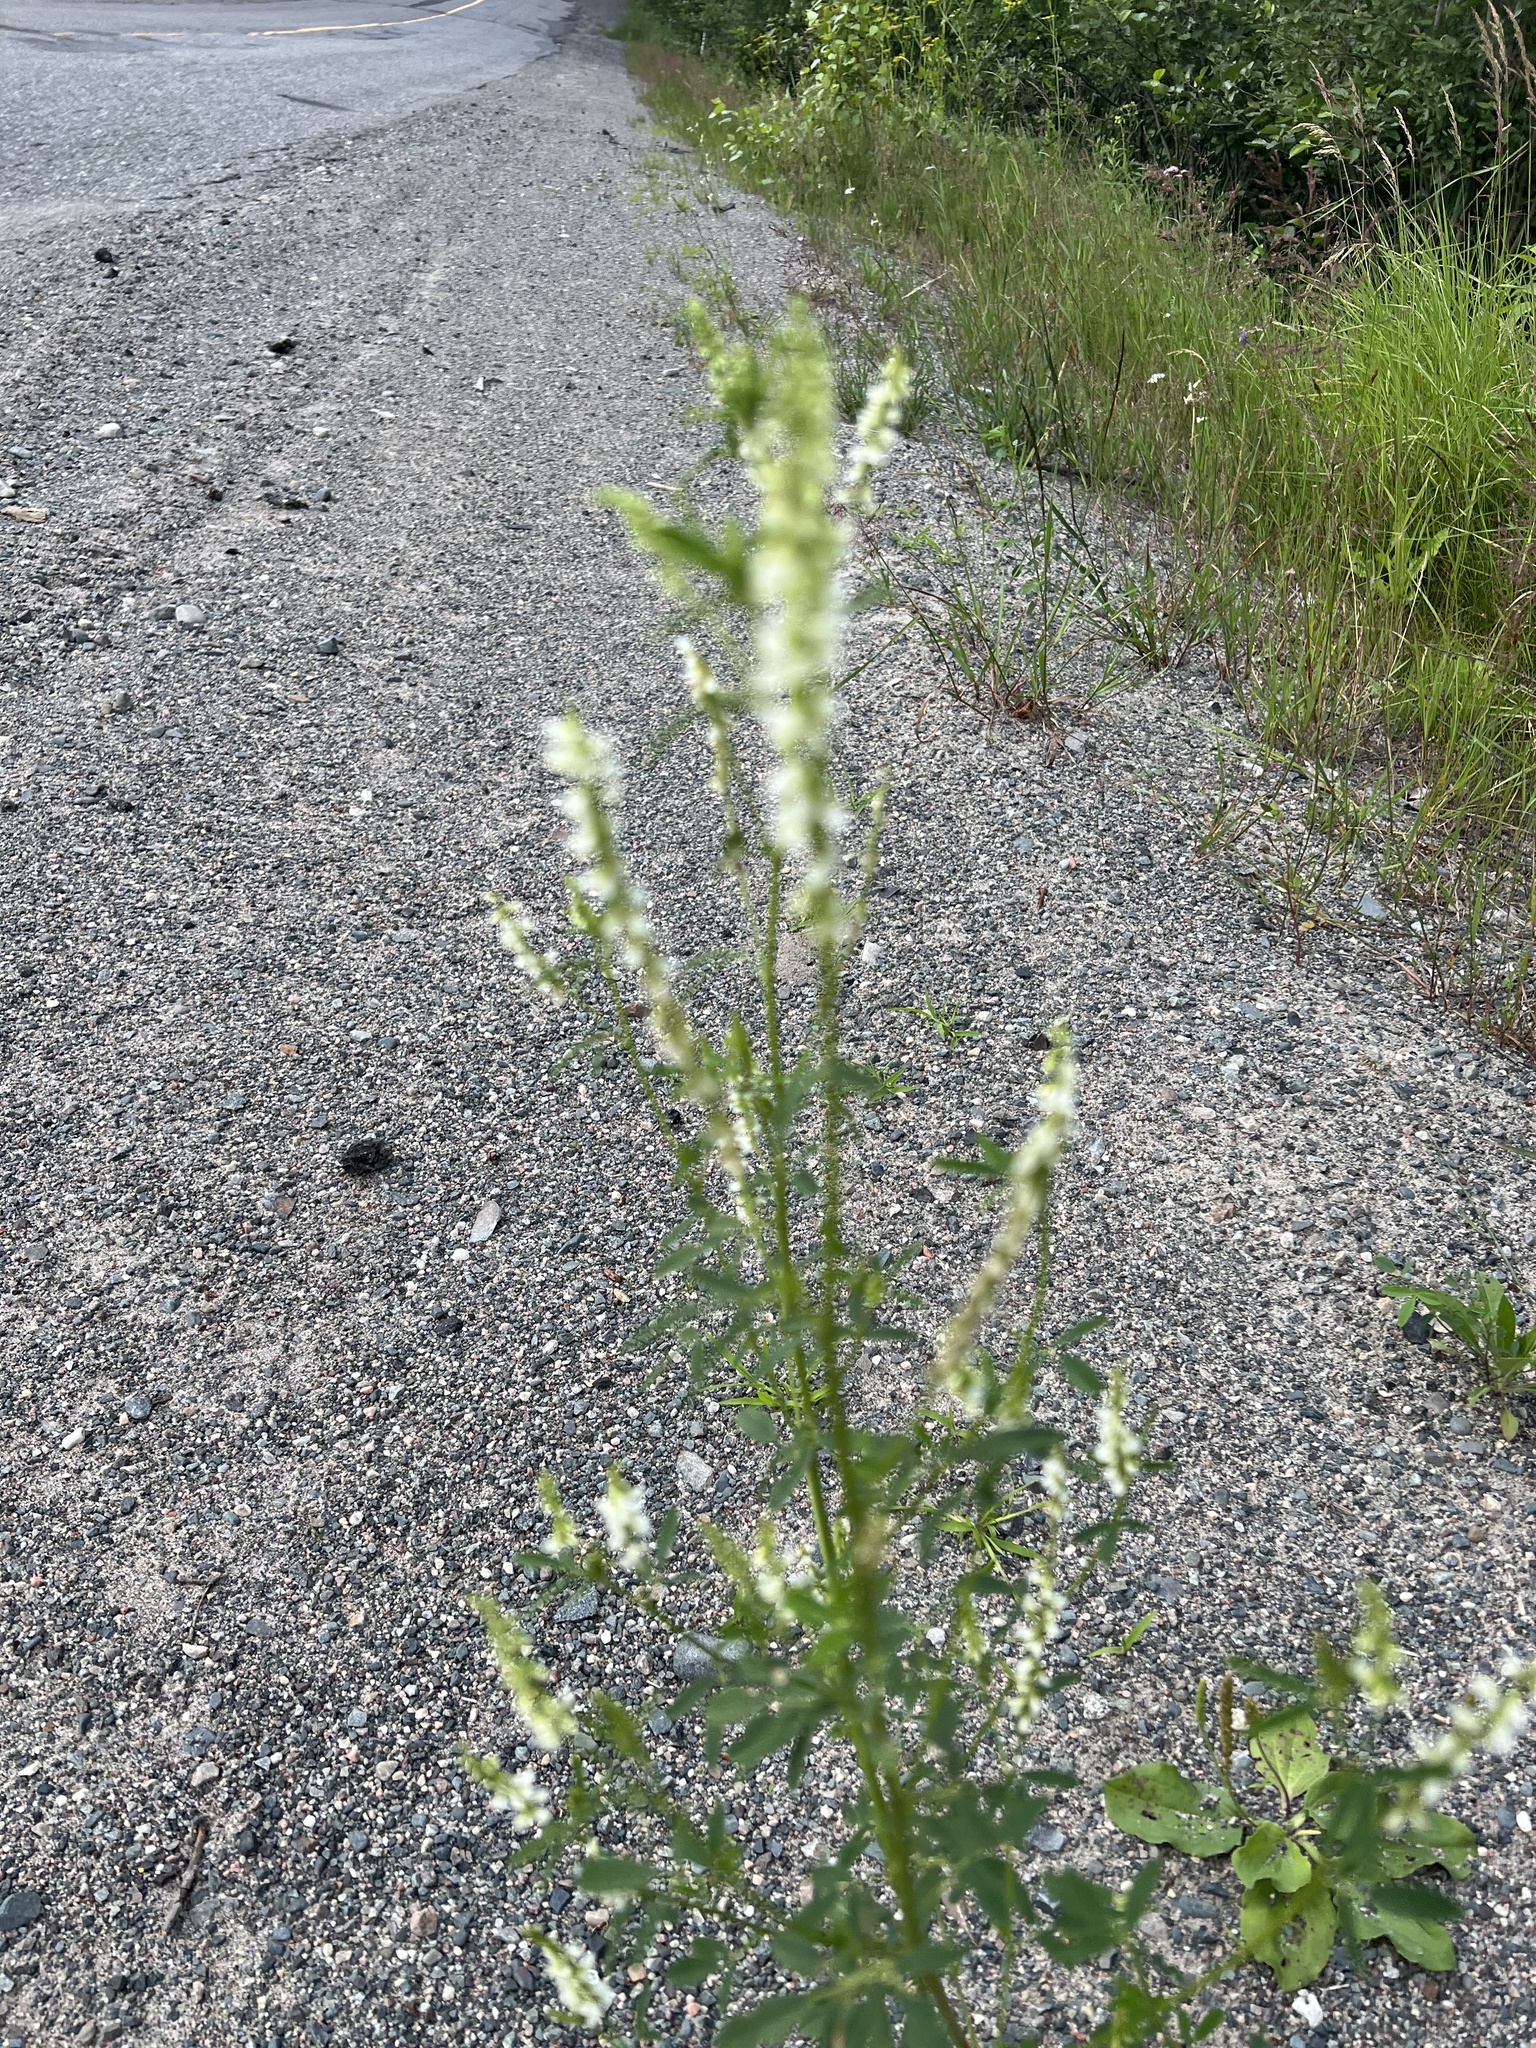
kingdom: Plantae
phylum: Tracheophyta
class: Magnoliopsida
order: Fabales
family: Fabaceae
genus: Melilotus
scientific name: Melilotus albus
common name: White melilot
